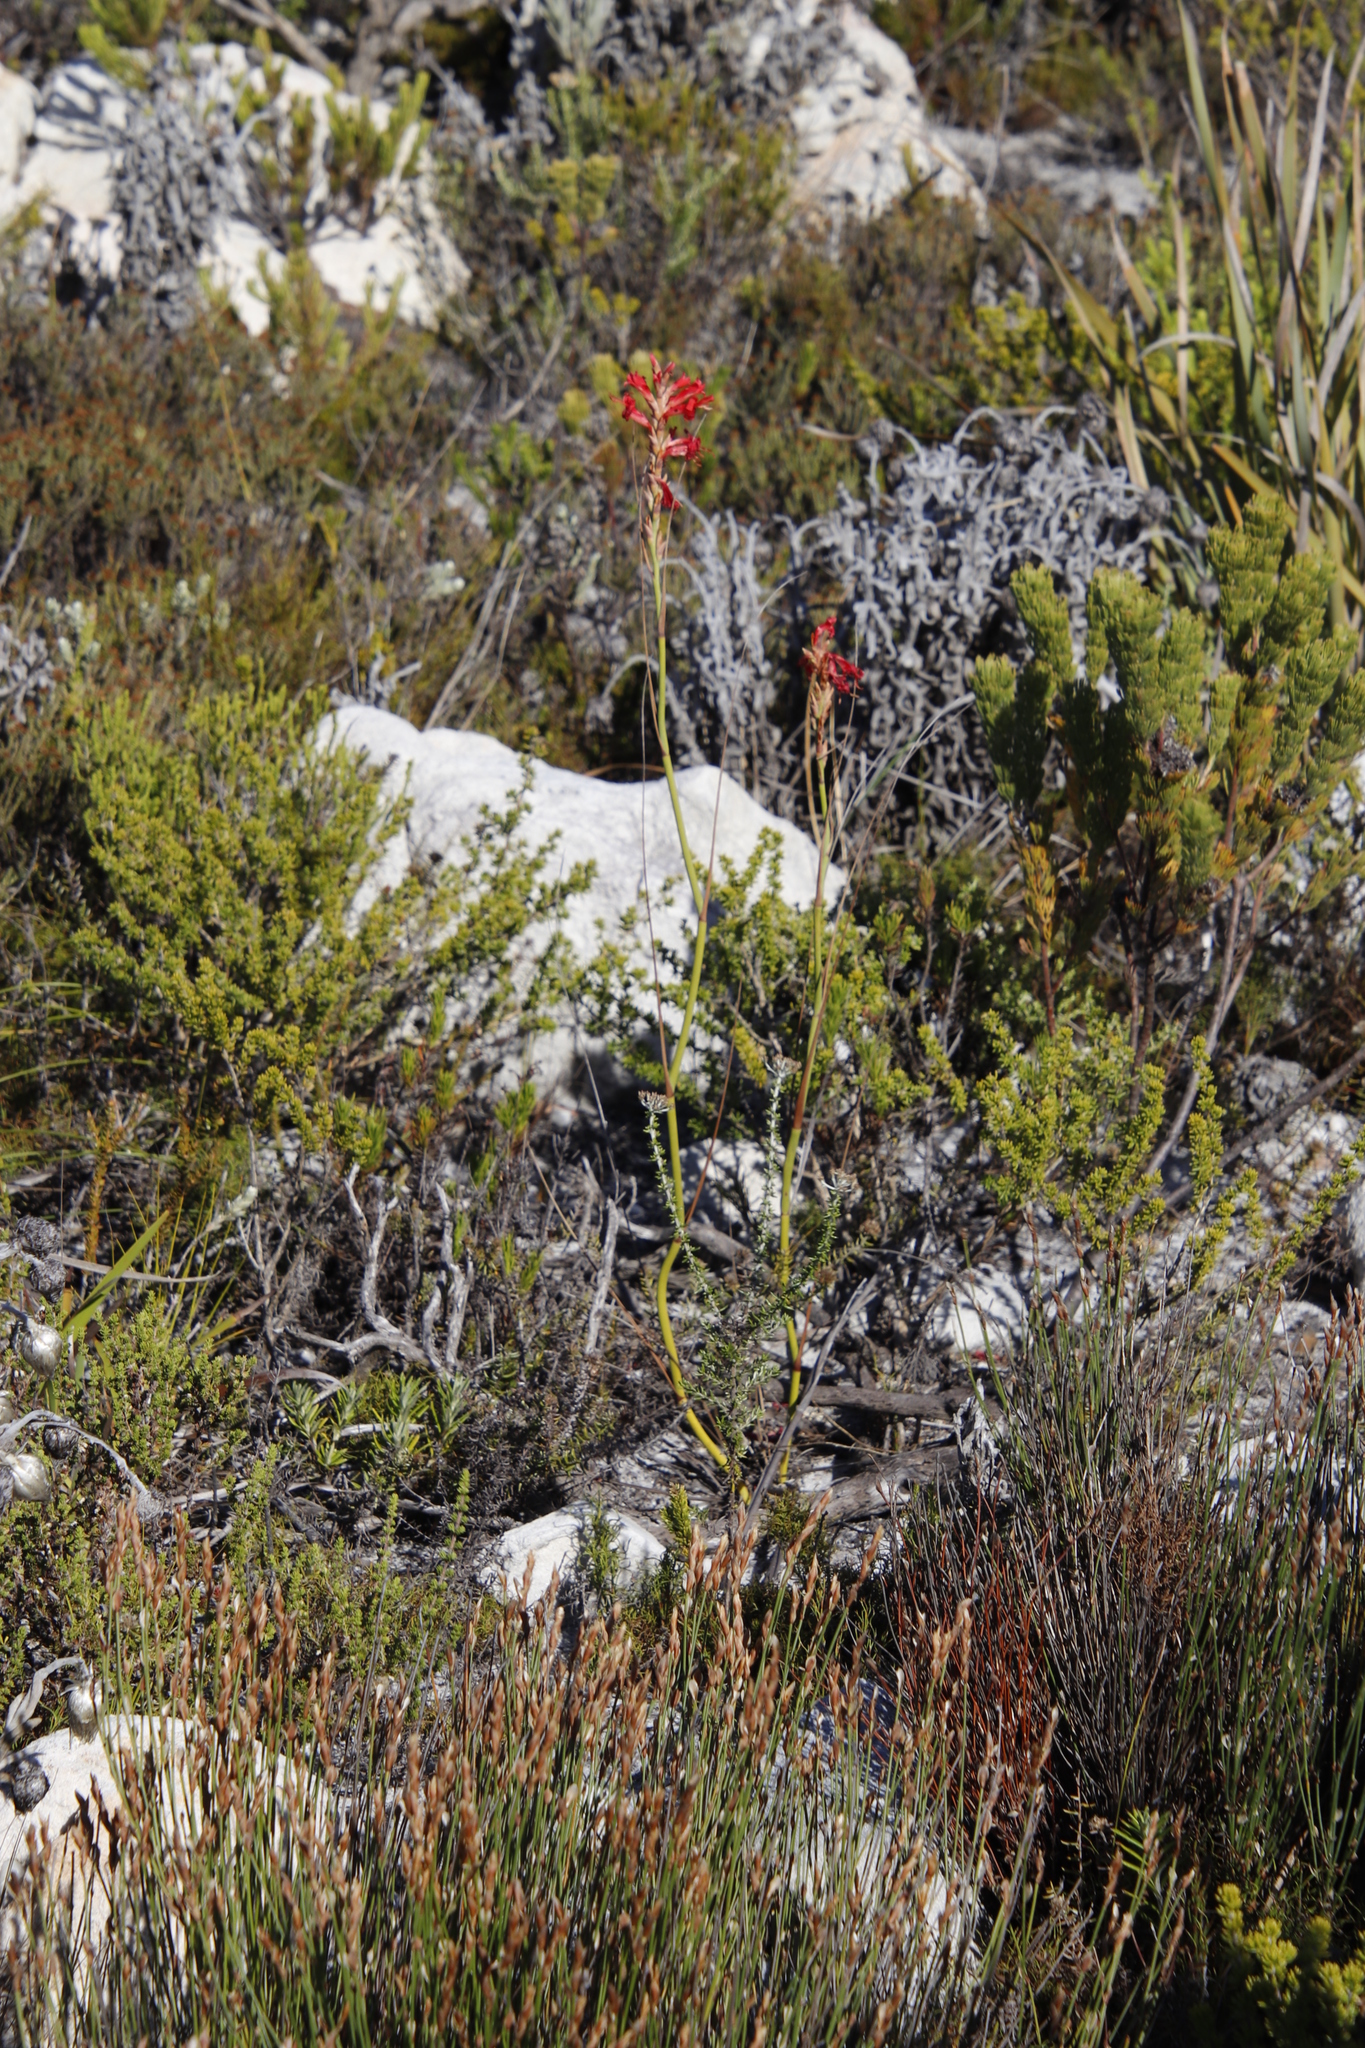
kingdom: Plantae
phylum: Tracheophyta
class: Liliopsida
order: Asparagales
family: Iridaceae
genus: Tritoniopsis
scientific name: Tritoniopsis triticea
